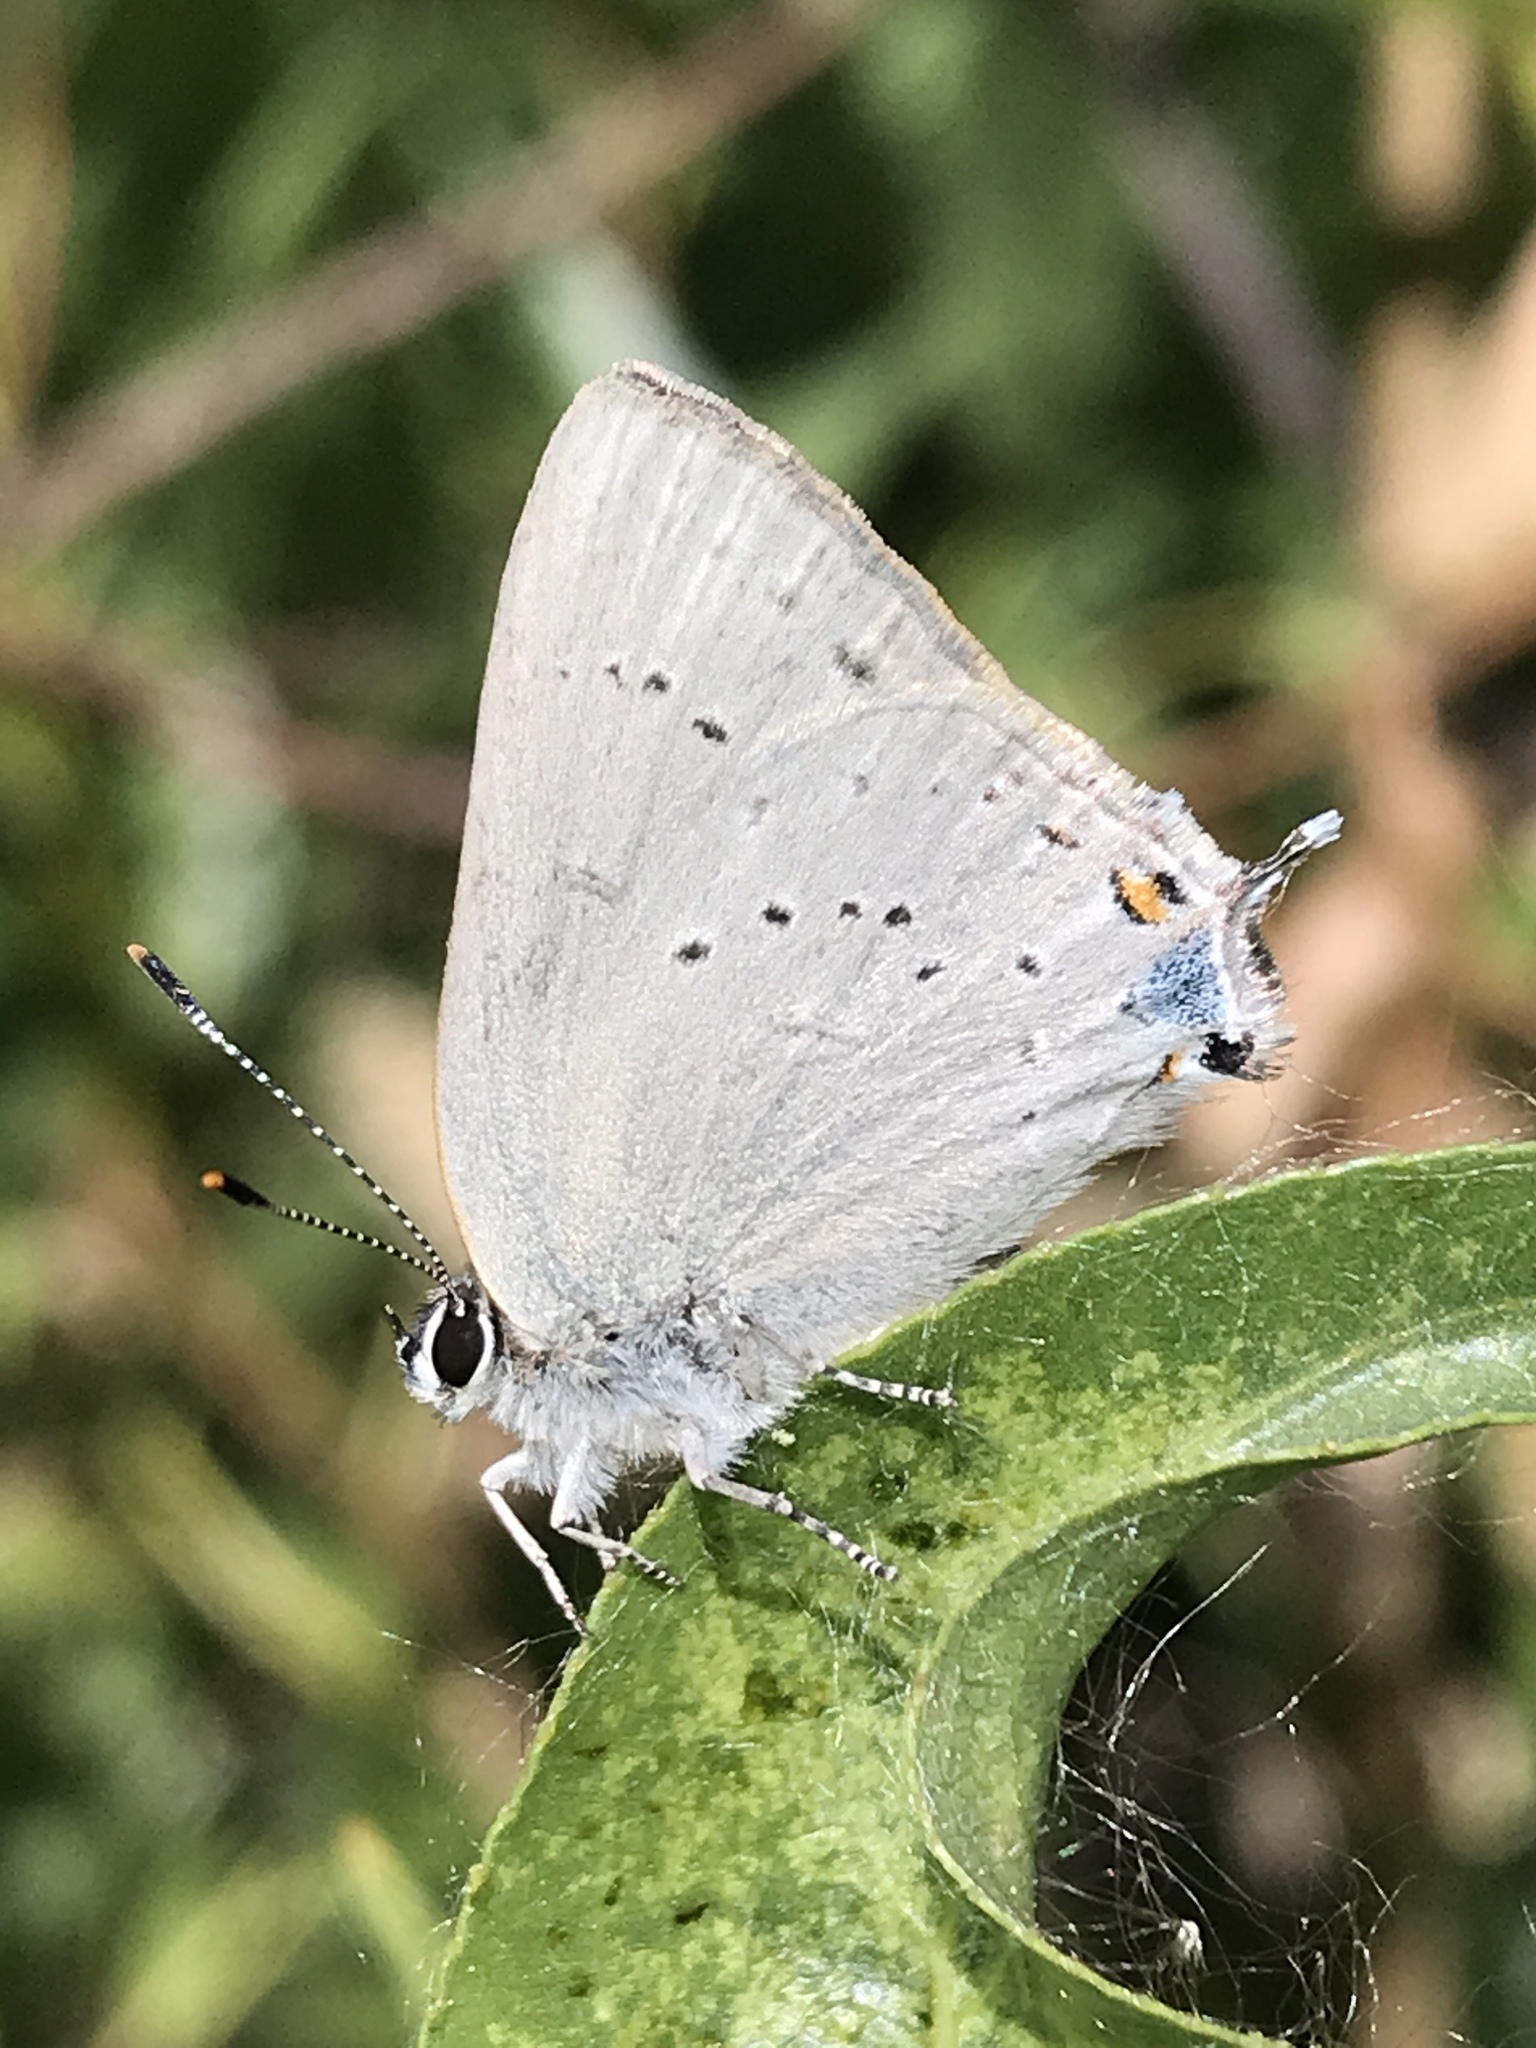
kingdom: Animalia
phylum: Arthropoda
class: Insecta
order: Lepidoptera
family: Lycaenidae
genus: Strymon
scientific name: Strymon sylvinus
